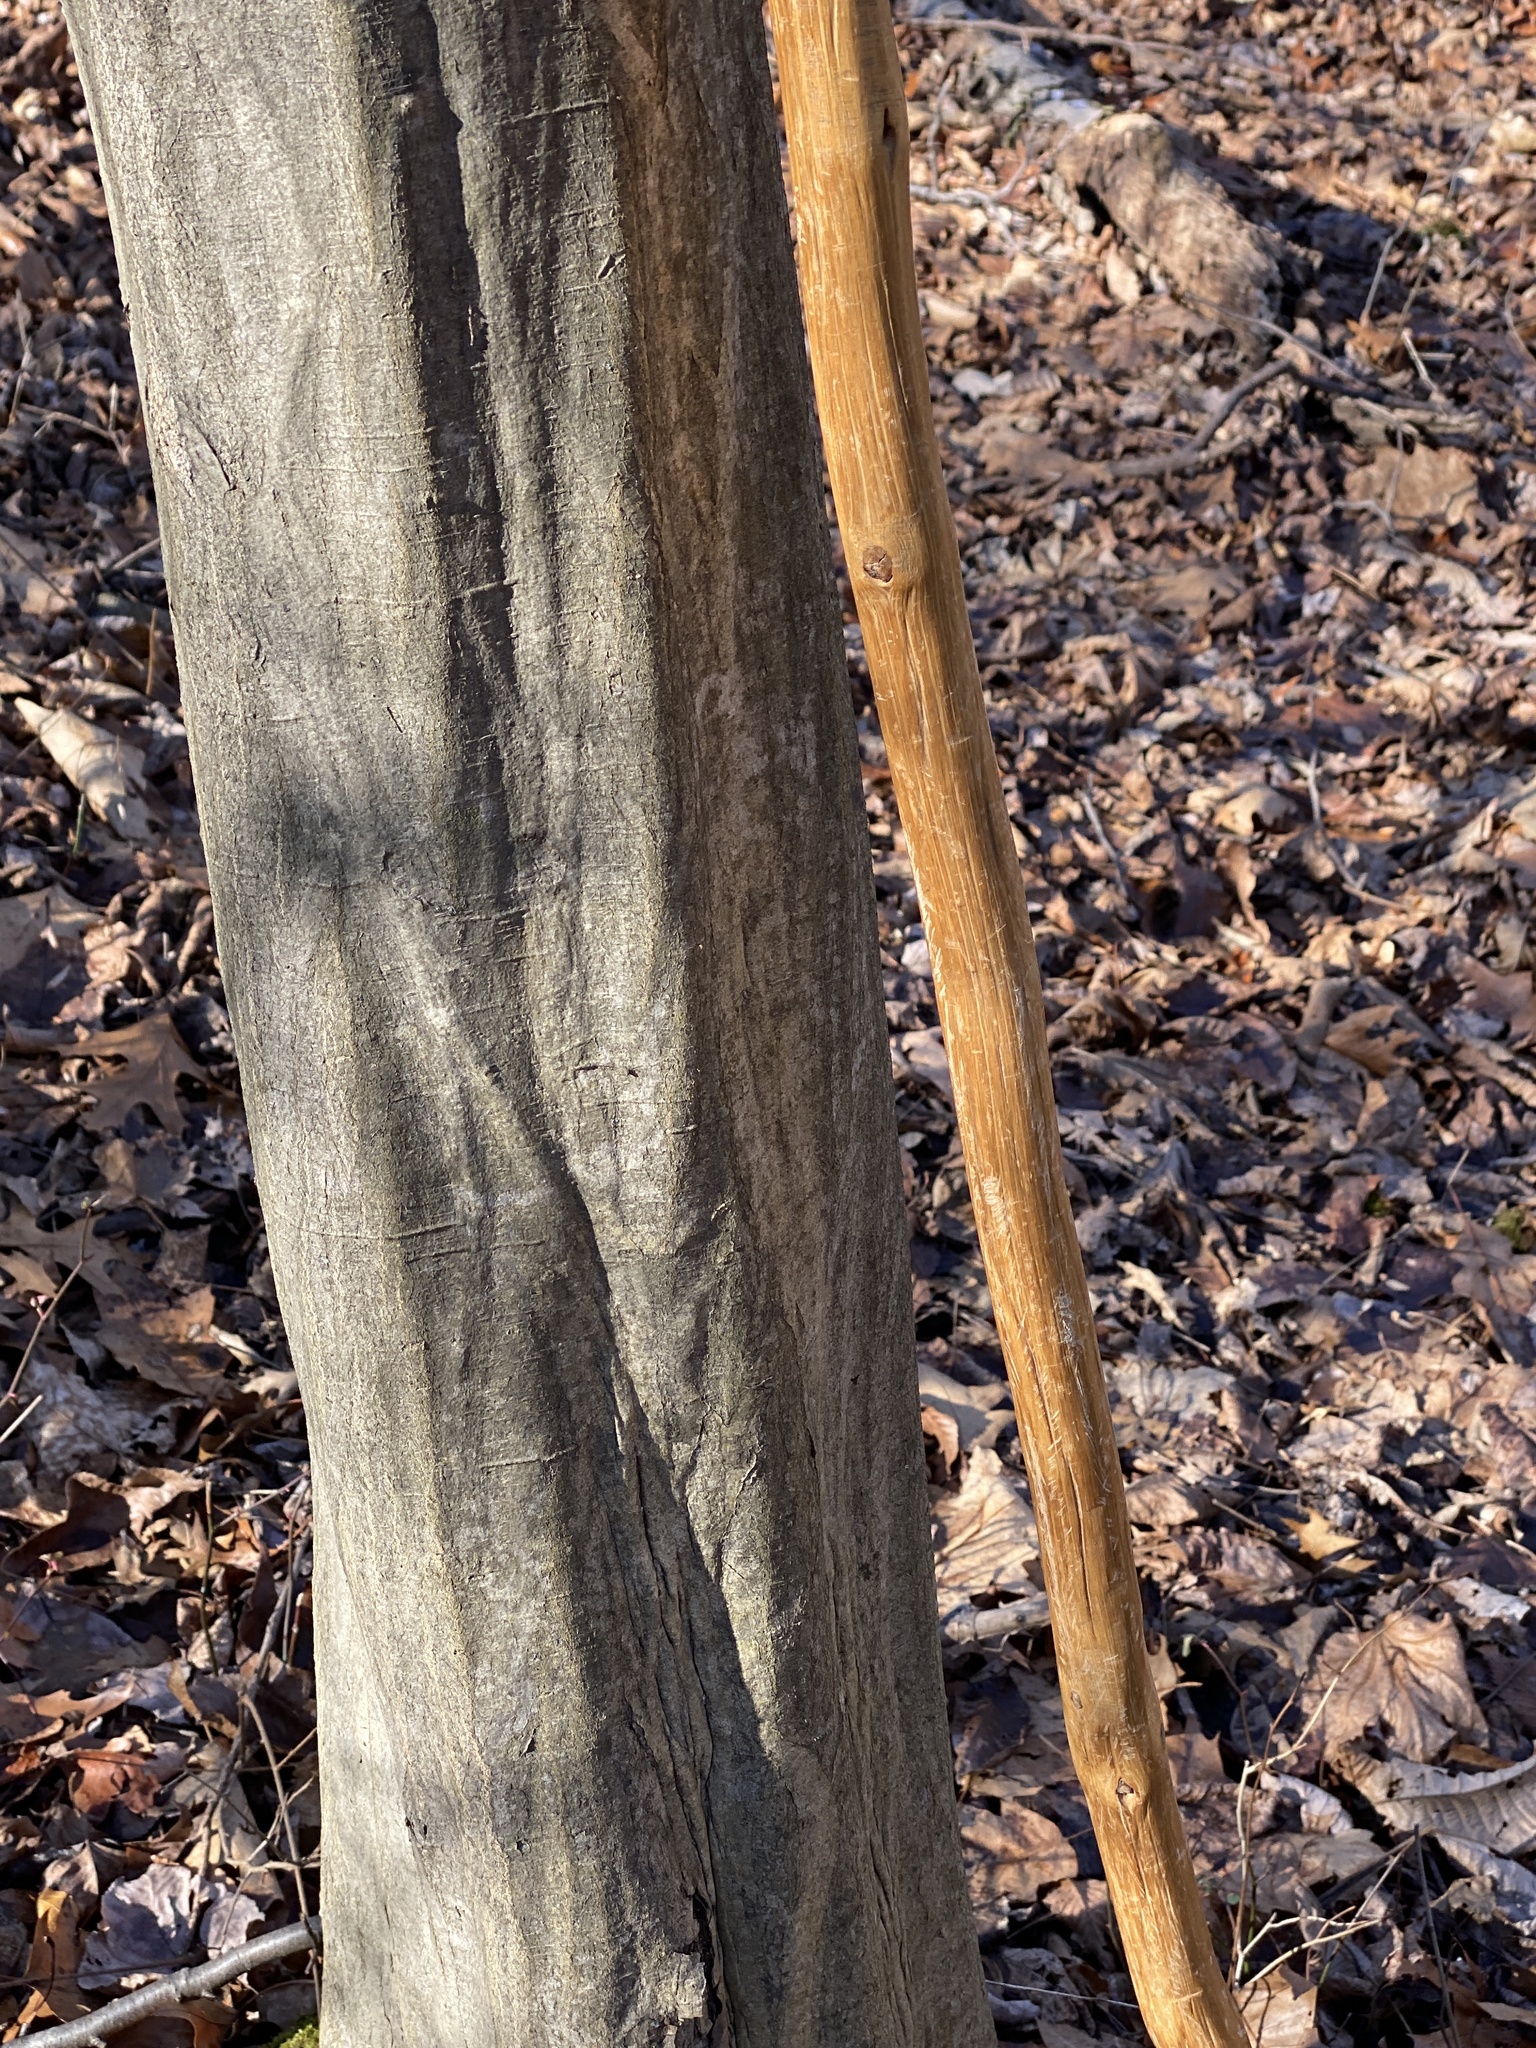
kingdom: Plantae
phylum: Tracheophyta
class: Magnoliopsida
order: Fagales
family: Betulaceae
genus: Carpinus
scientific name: Carpinus caroliniana
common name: American hornbeam
